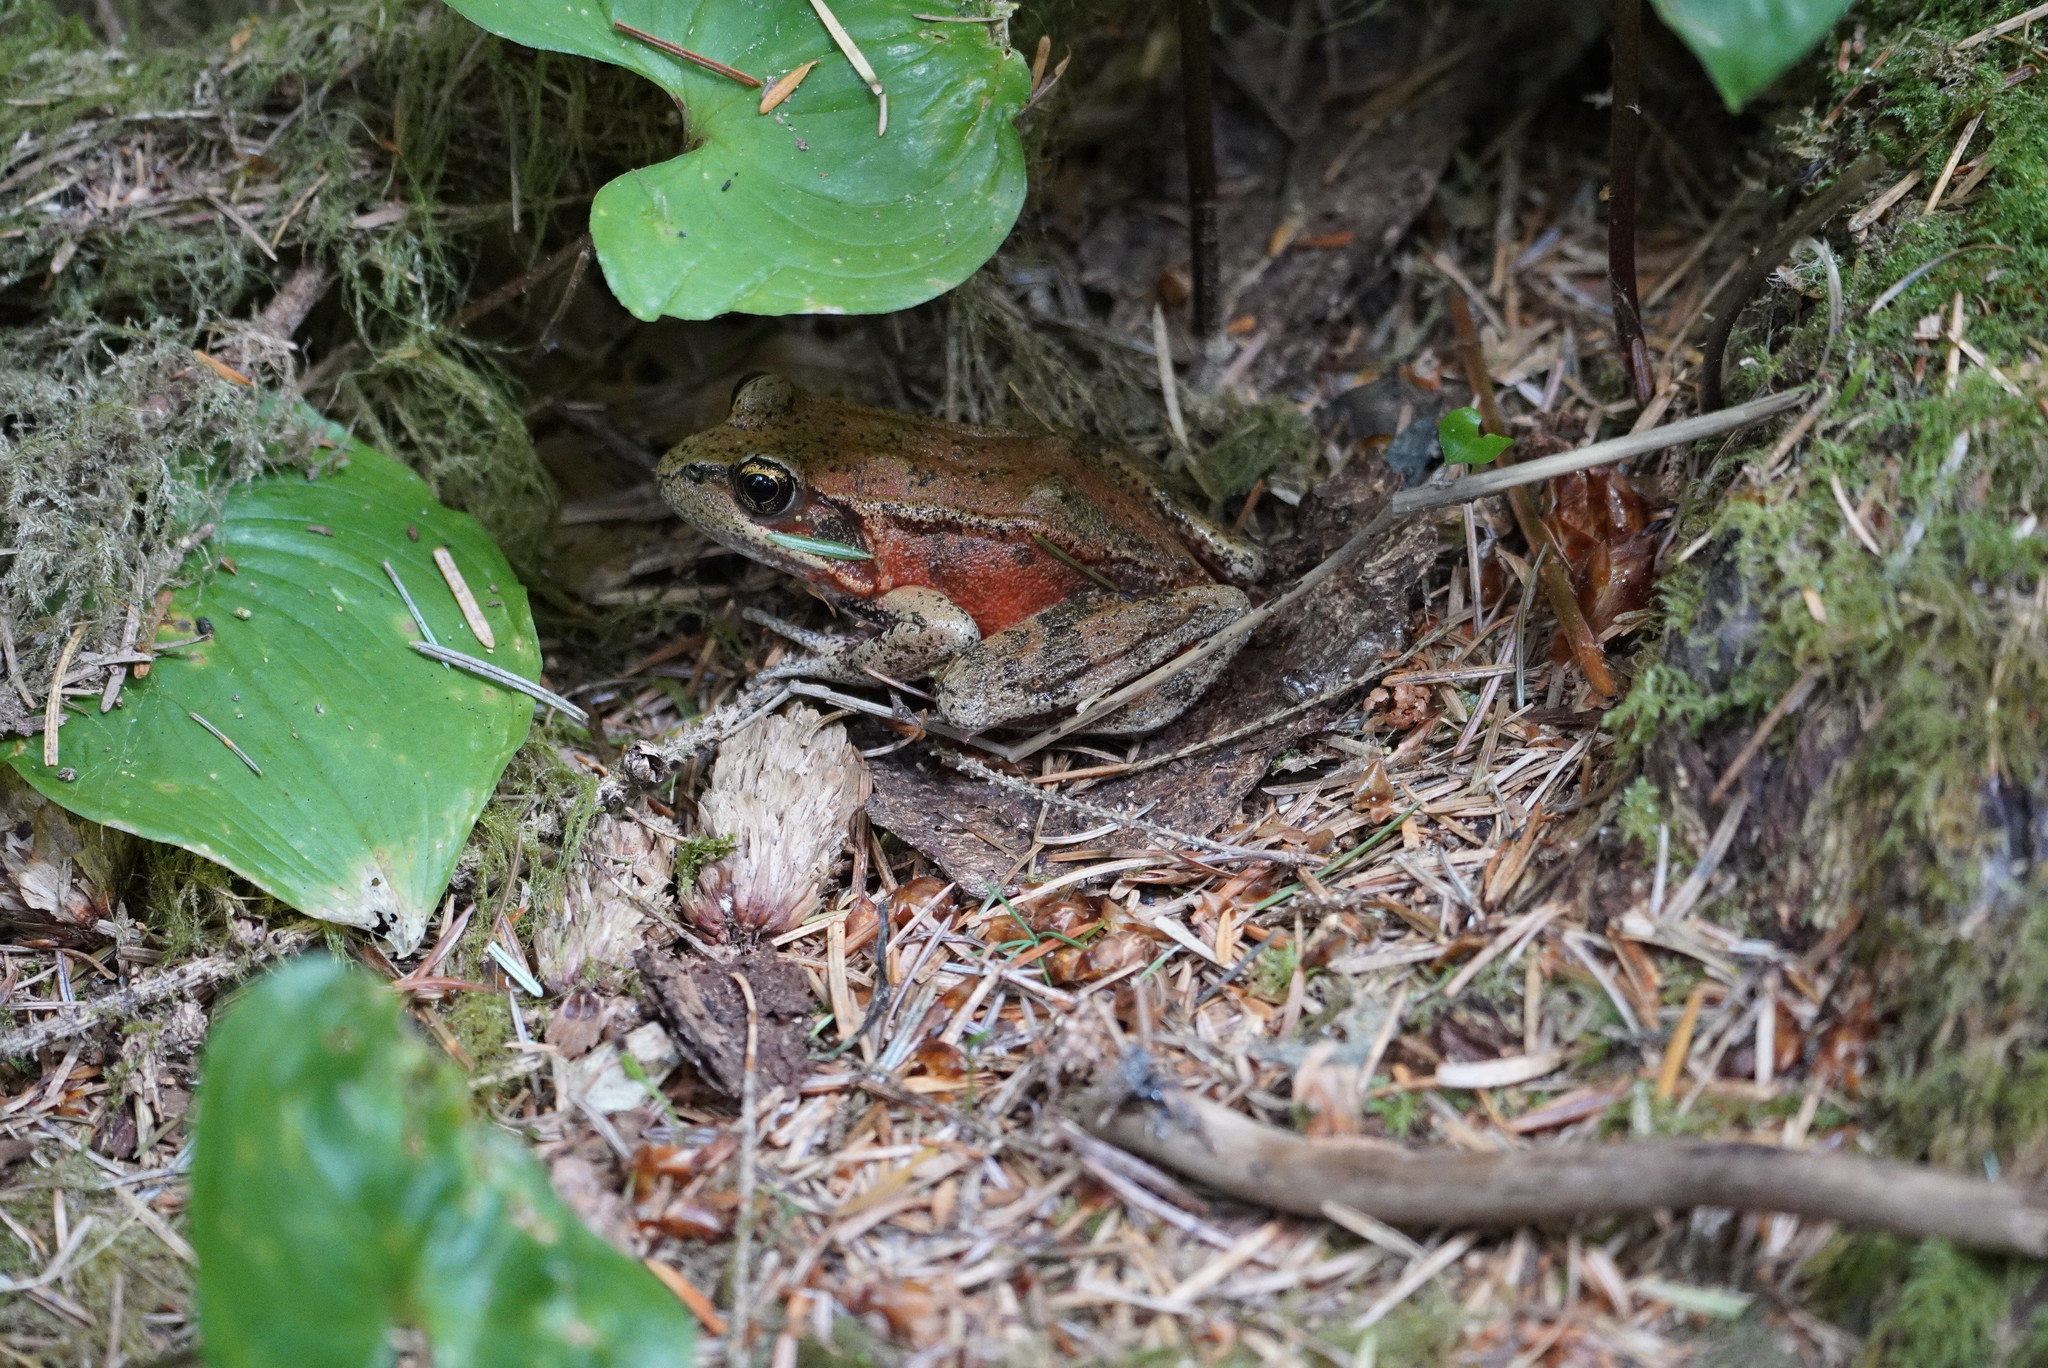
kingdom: Animalia
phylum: Chordata
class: Amphibia
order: Anura
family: Ranidae
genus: Rana
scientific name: Rana aurora
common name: Red-legged frog
